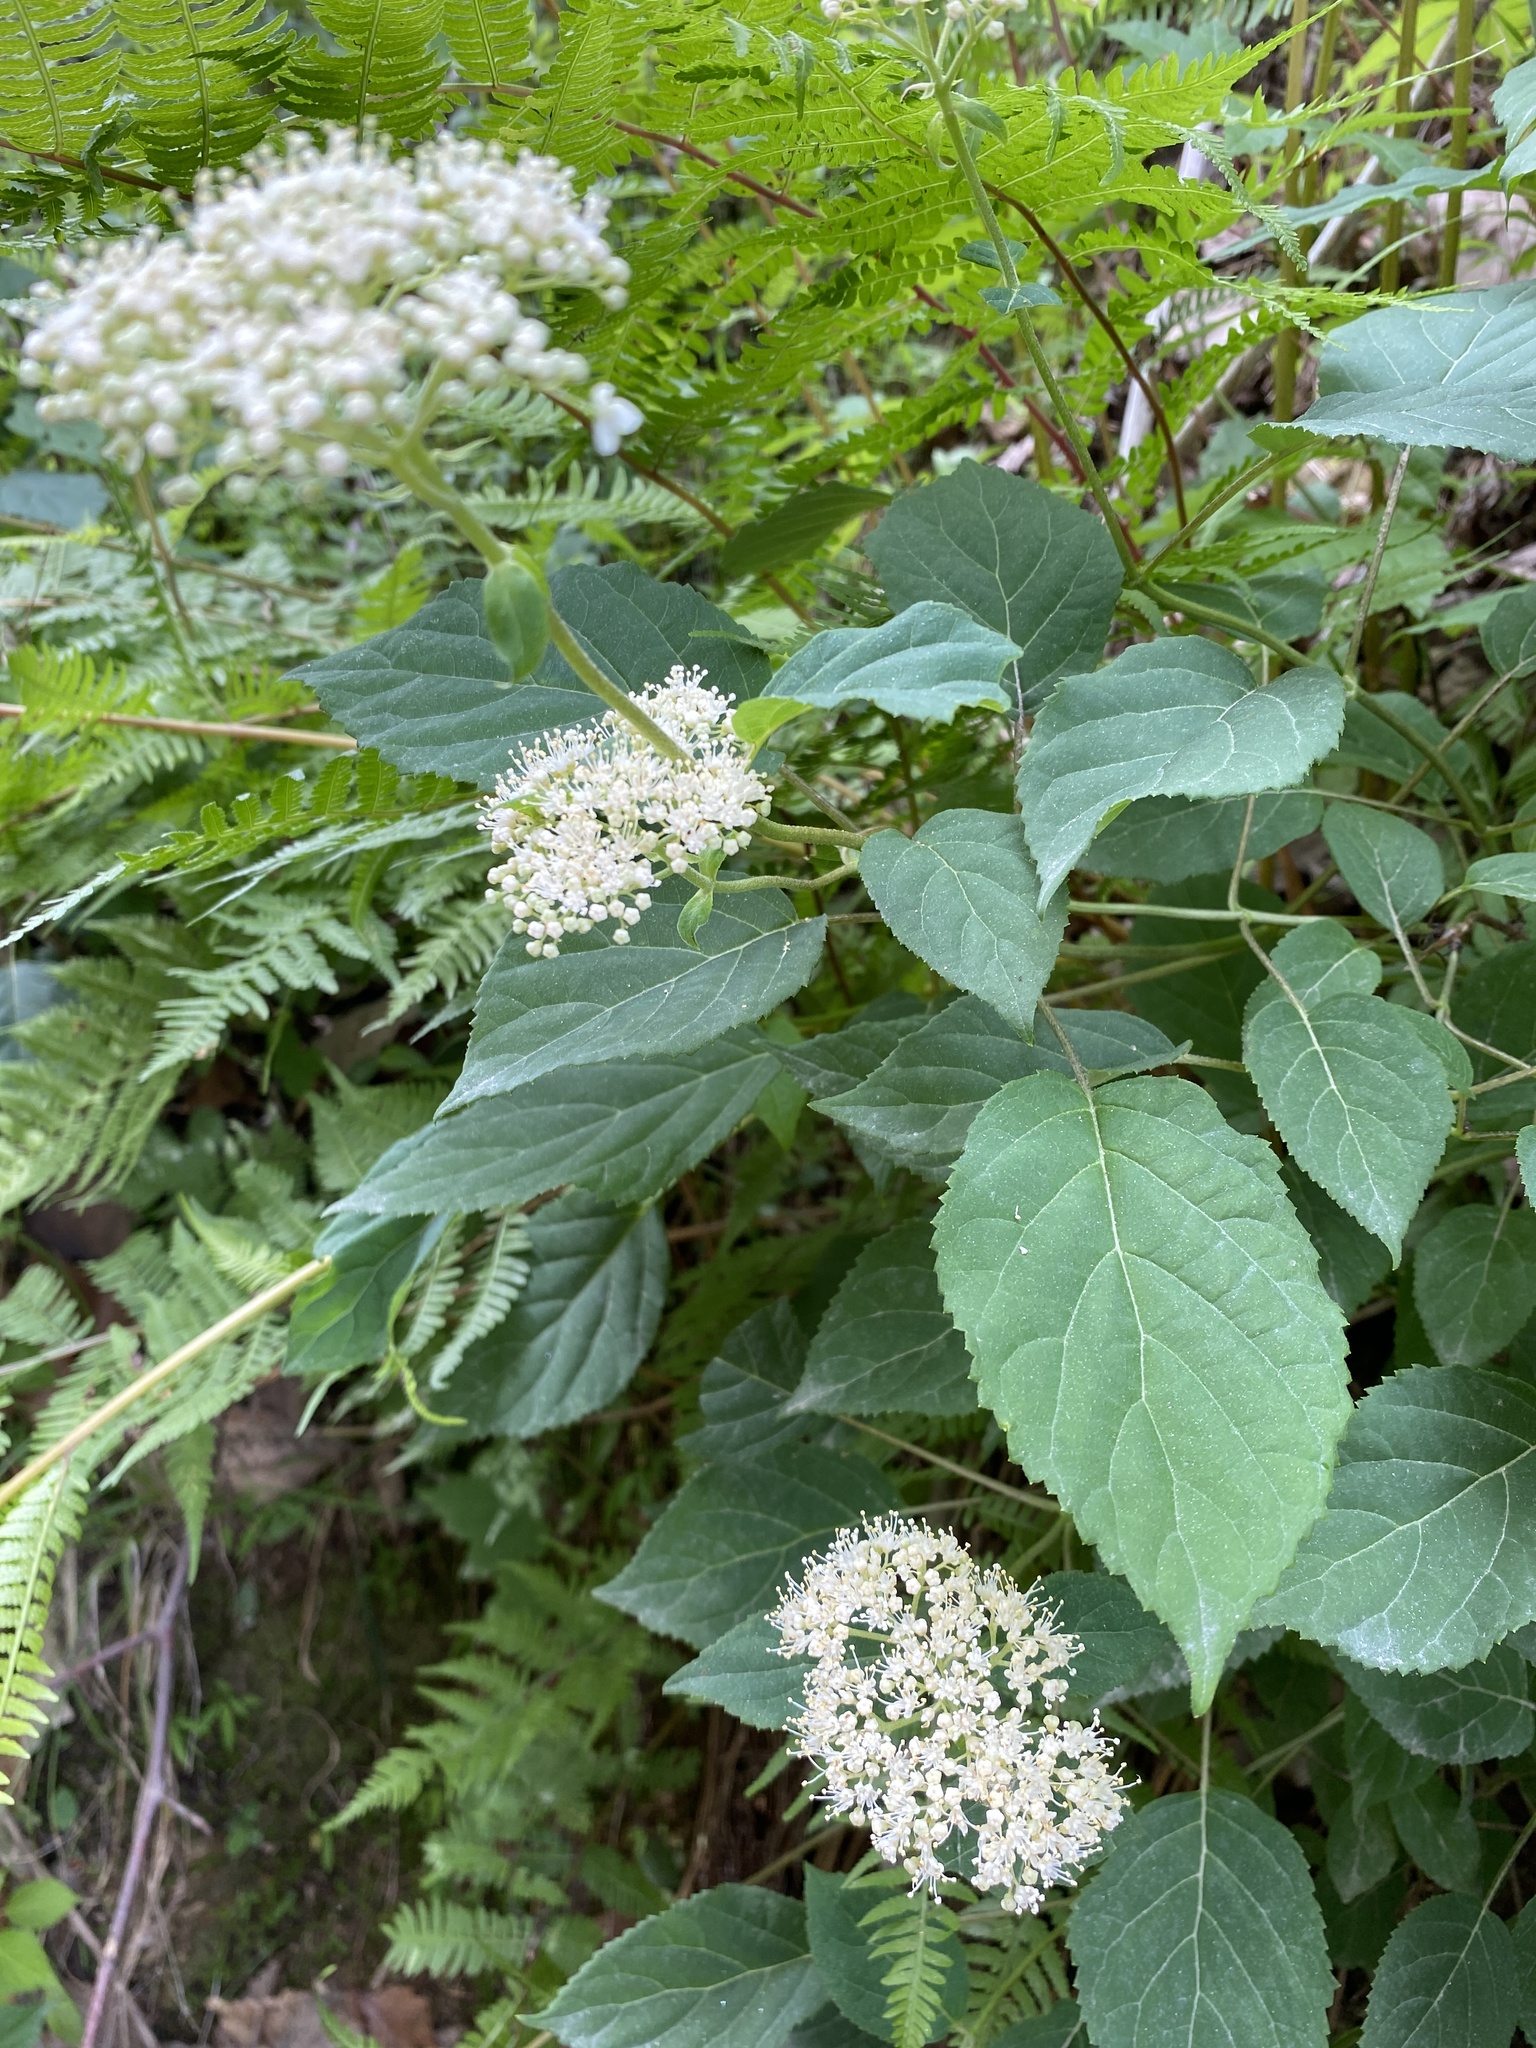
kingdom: Plantae
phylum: Tracheophyta
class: Magnoliopsida
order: Cornales
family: Hydrangeaceae
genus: Hydrangea
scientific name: Hydrangea arborescens
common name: Sevenbark
